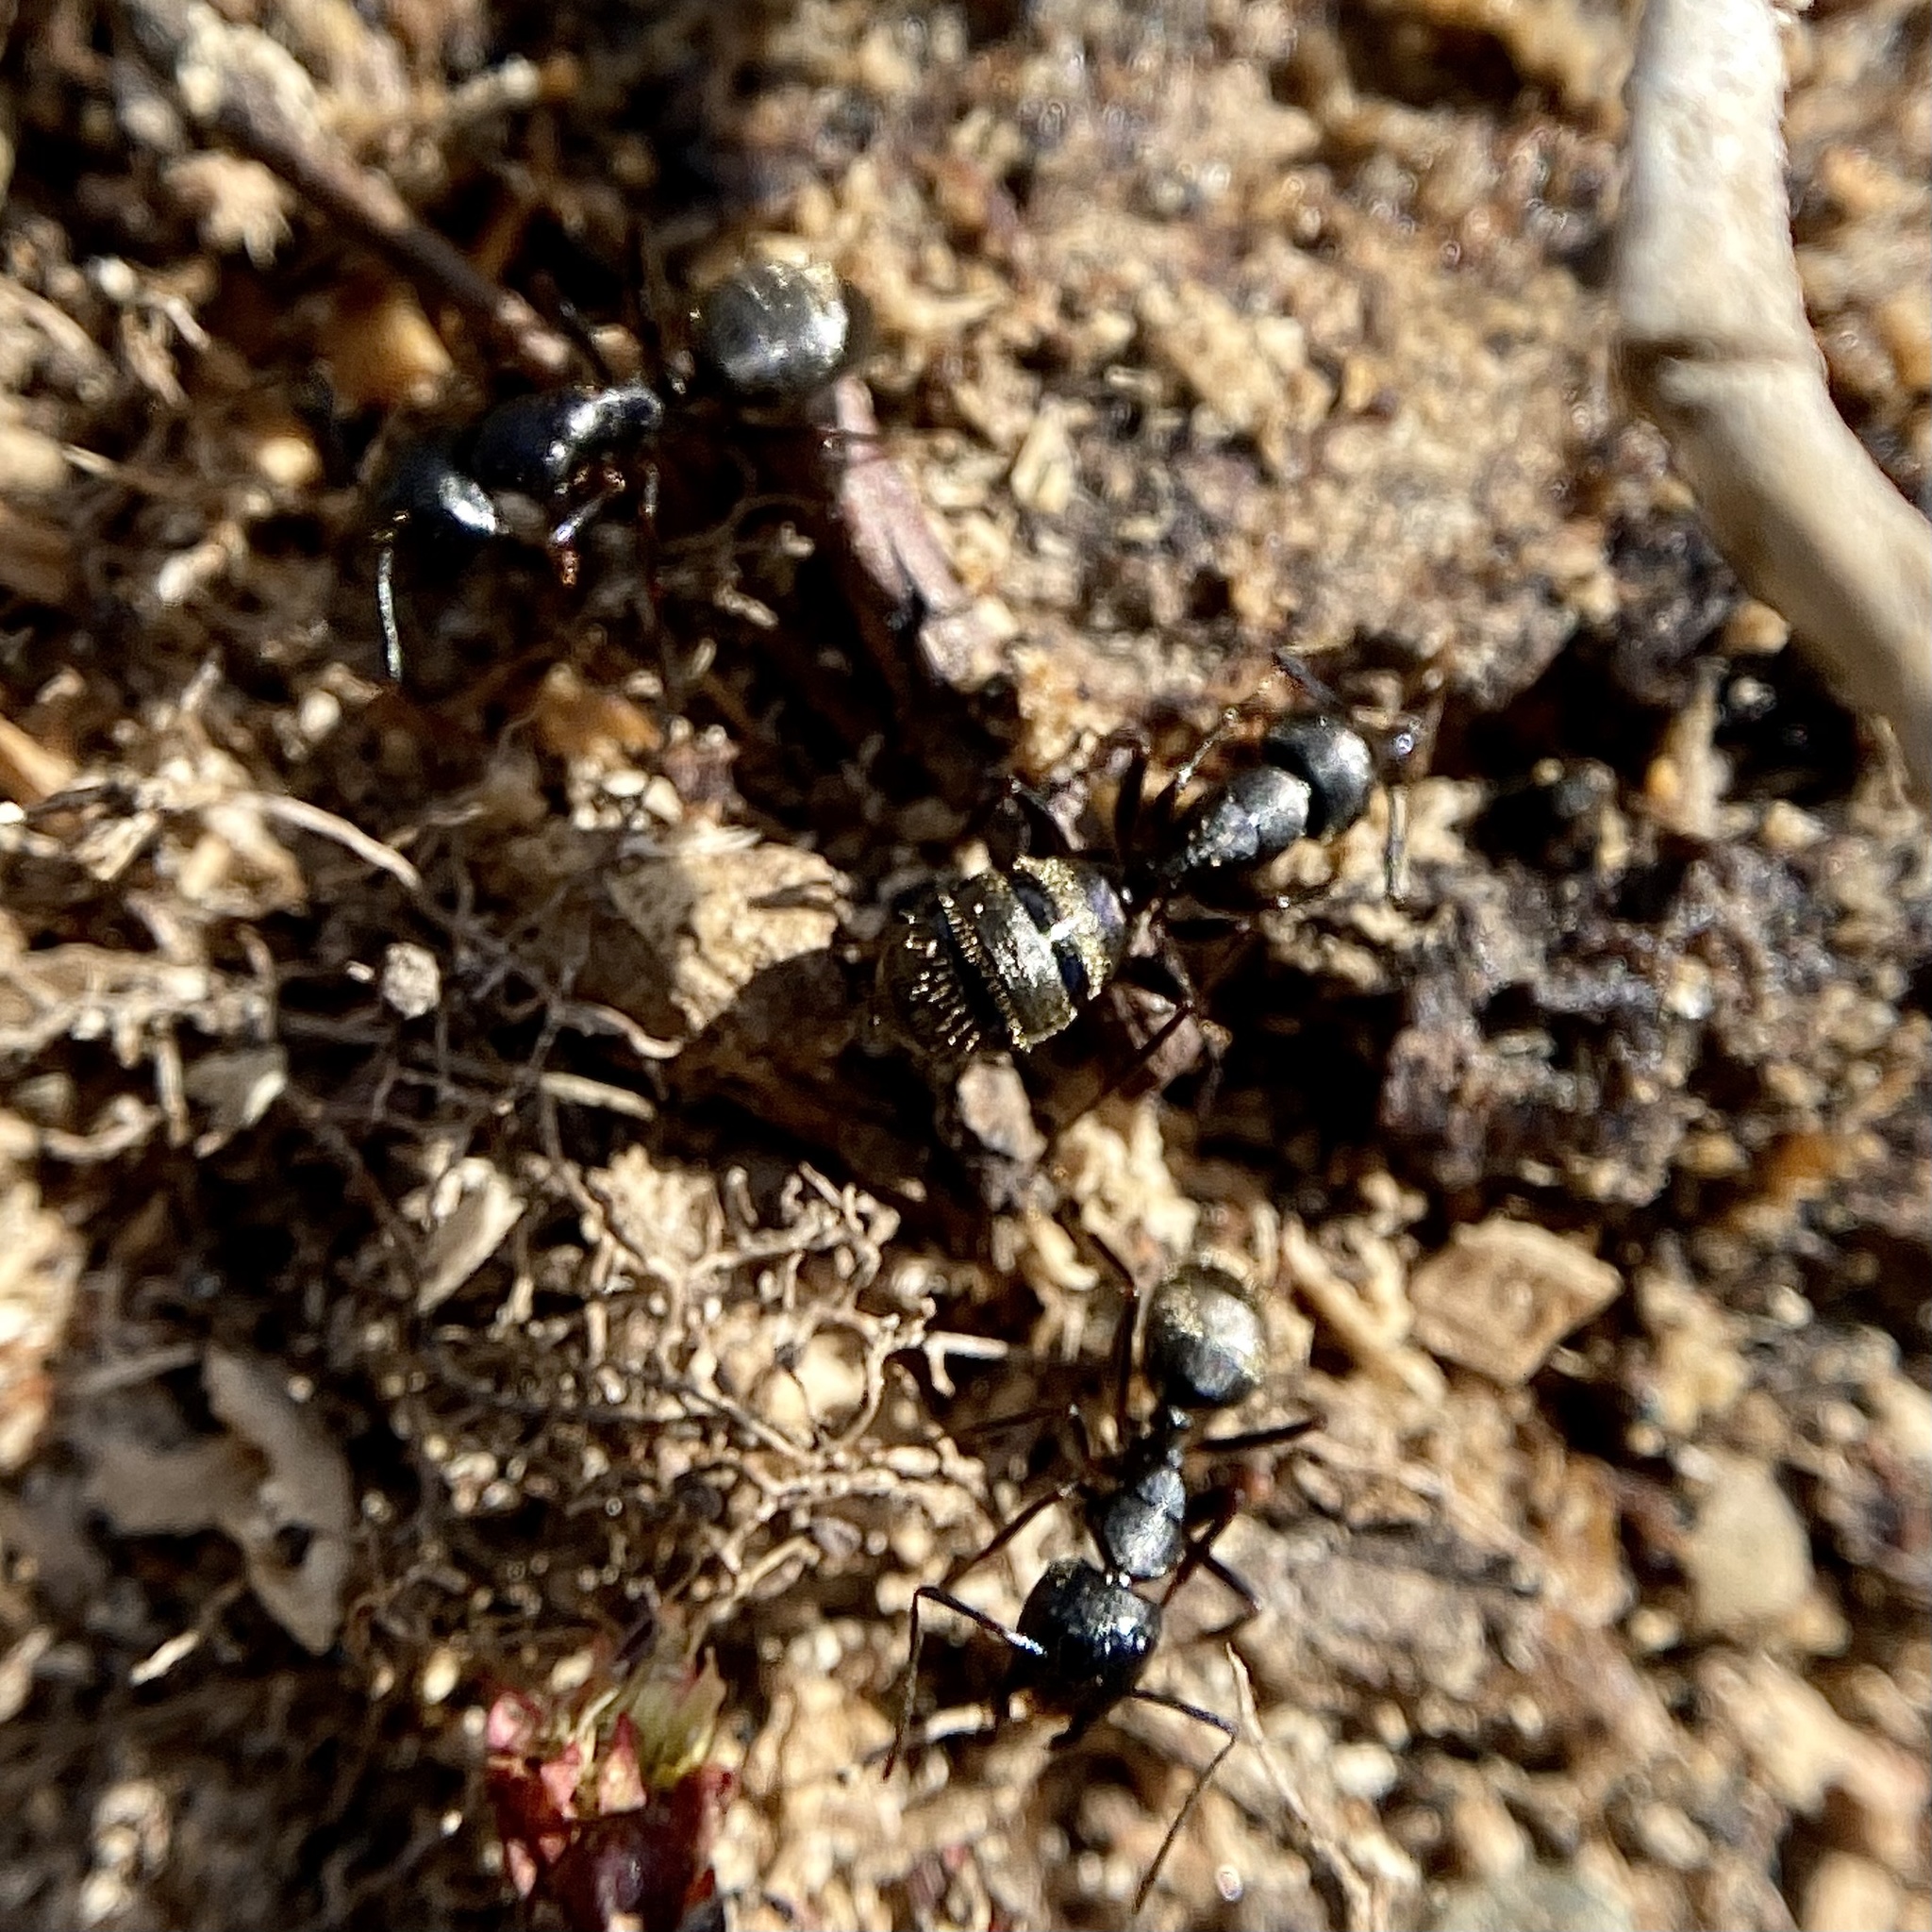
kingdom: Animalia
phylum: Arthropoda
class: Insecta
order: Hymenoptera
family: Formicidae
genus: Camponotus
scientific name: Camponotus pennsylvanicus
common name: Black carpenter ant
